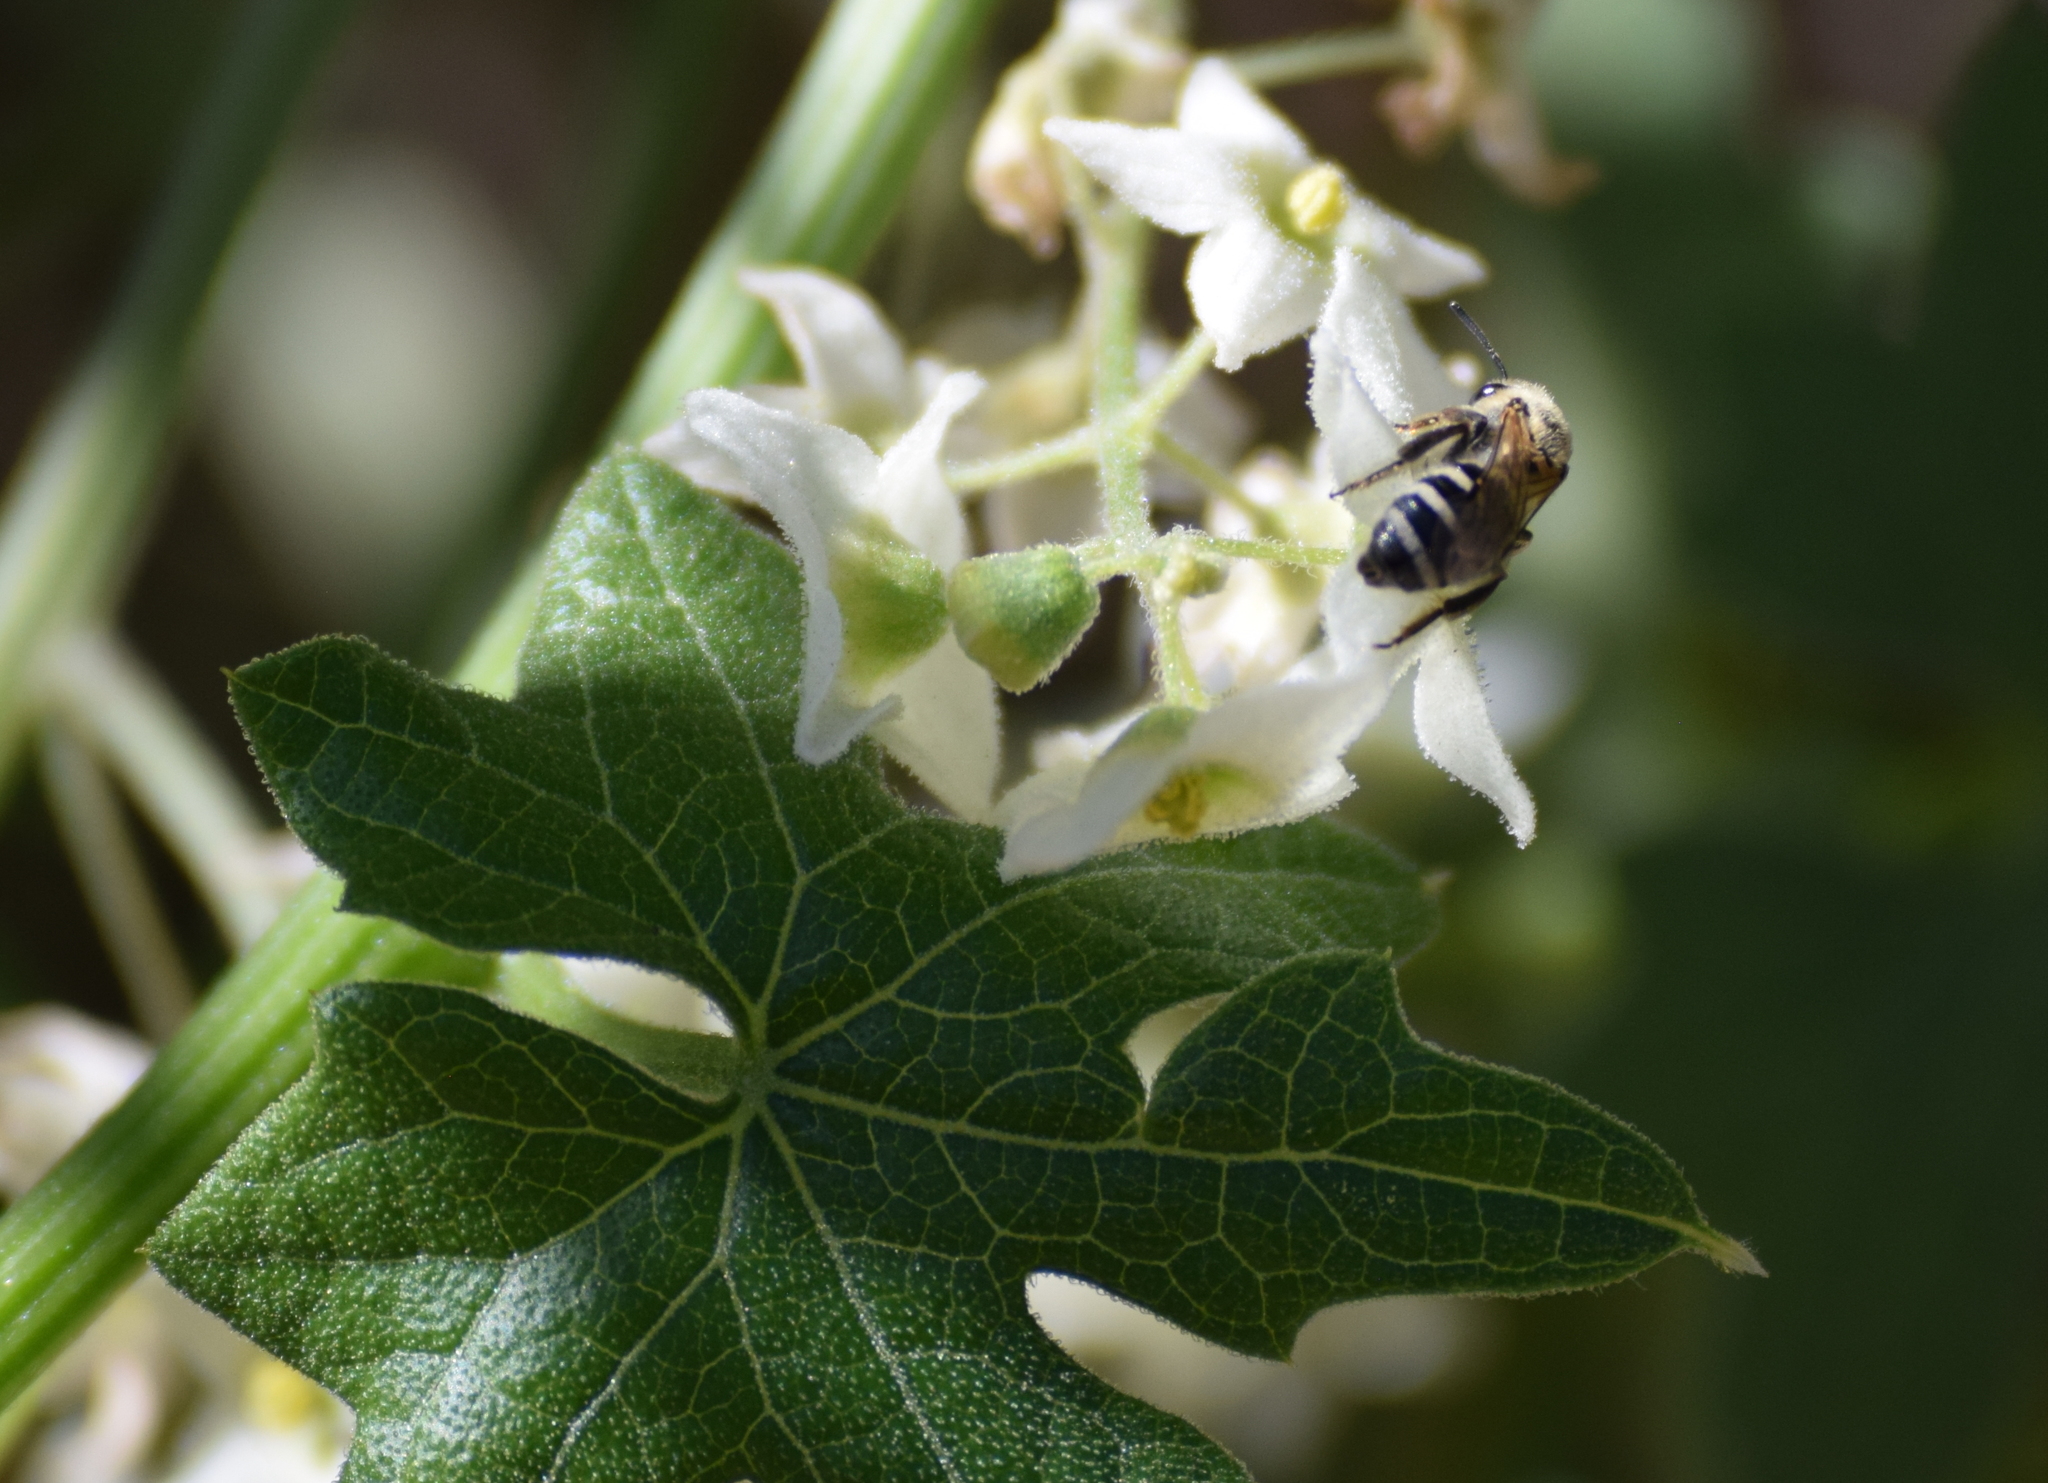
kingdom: Animalia
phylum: Arthropoda
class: Insecta
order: Hymenoptera
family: Halictidae
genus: Lasioglossum
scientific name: Lasioglossum sisymbrii
